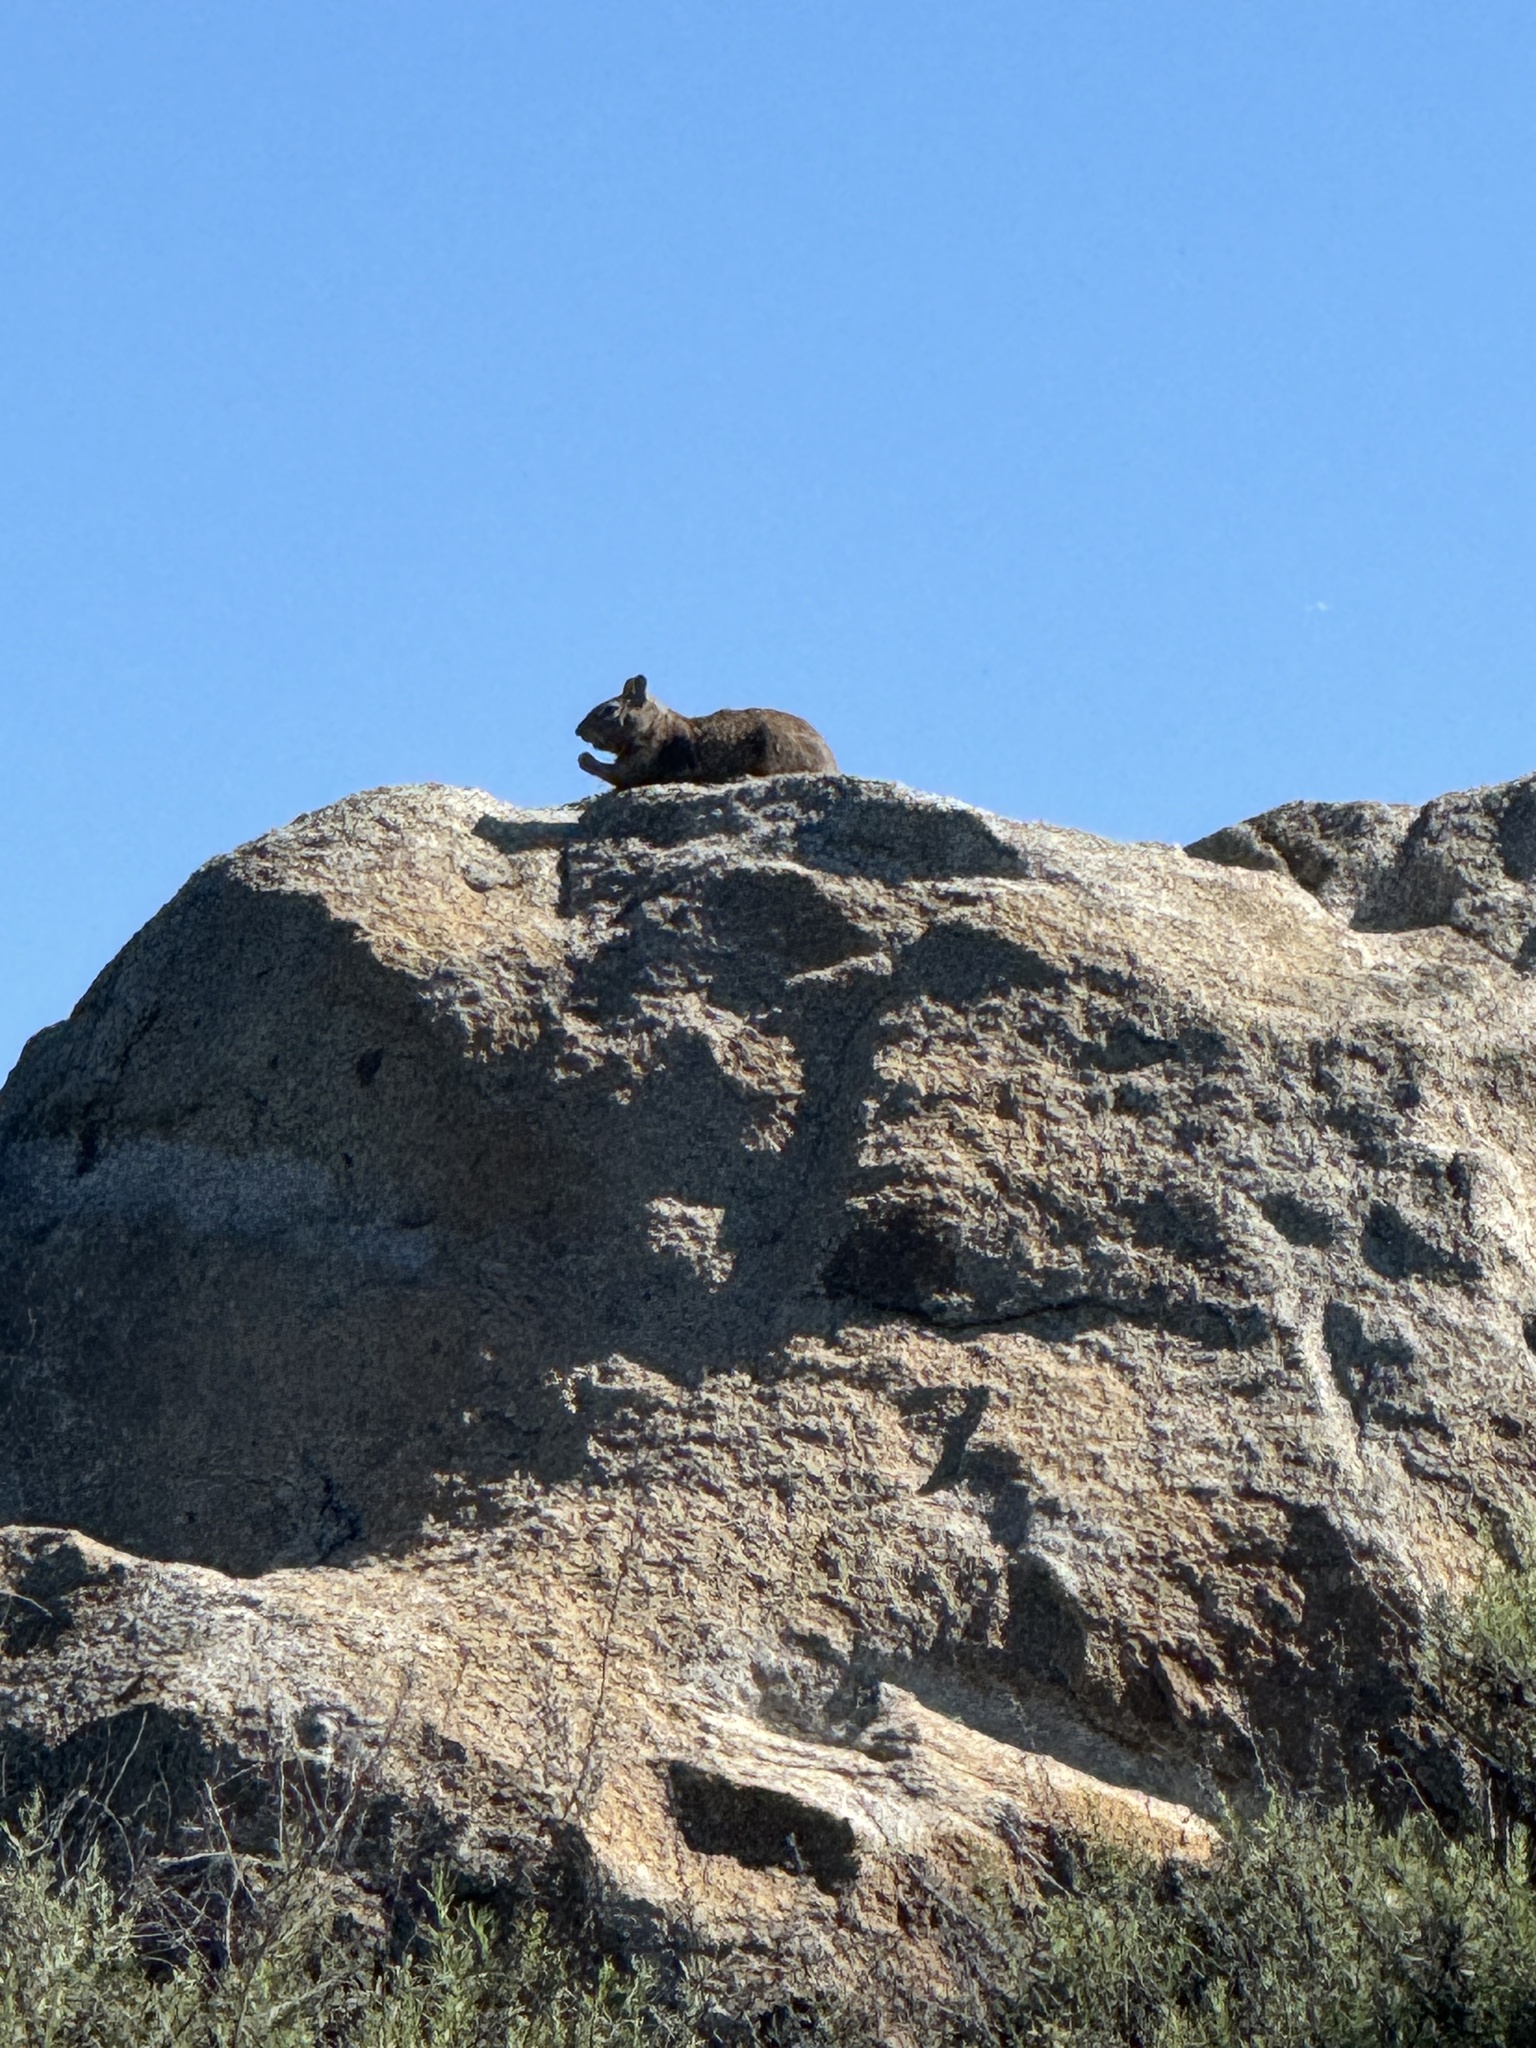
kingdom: Animalia
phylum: Chordata
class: Mammalia
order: Rodentia
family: Sciuridae
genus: Otospermophilus
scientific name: Otospermophilus beecheyi
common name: California ground squirrel
